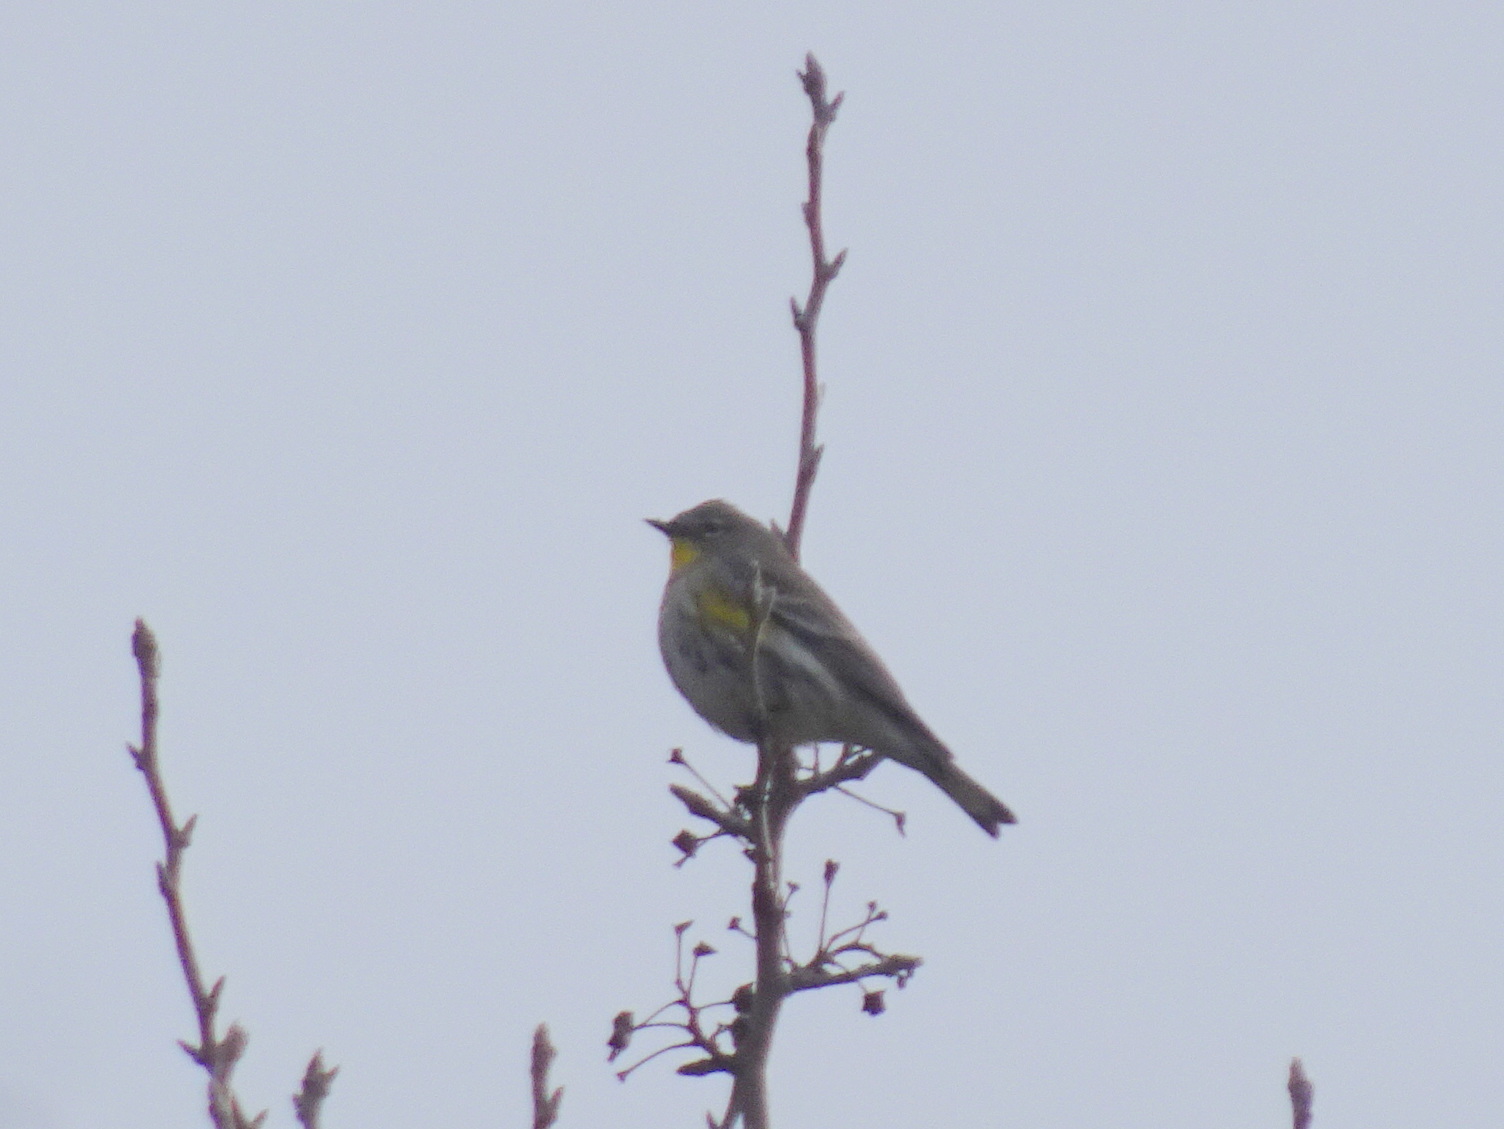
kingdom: Animalia
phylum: Chordata
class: Aves
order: Passeriformes
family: Parulidae
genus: Setophaga
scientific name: Setophaga coronata
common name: Myrtle warbler
